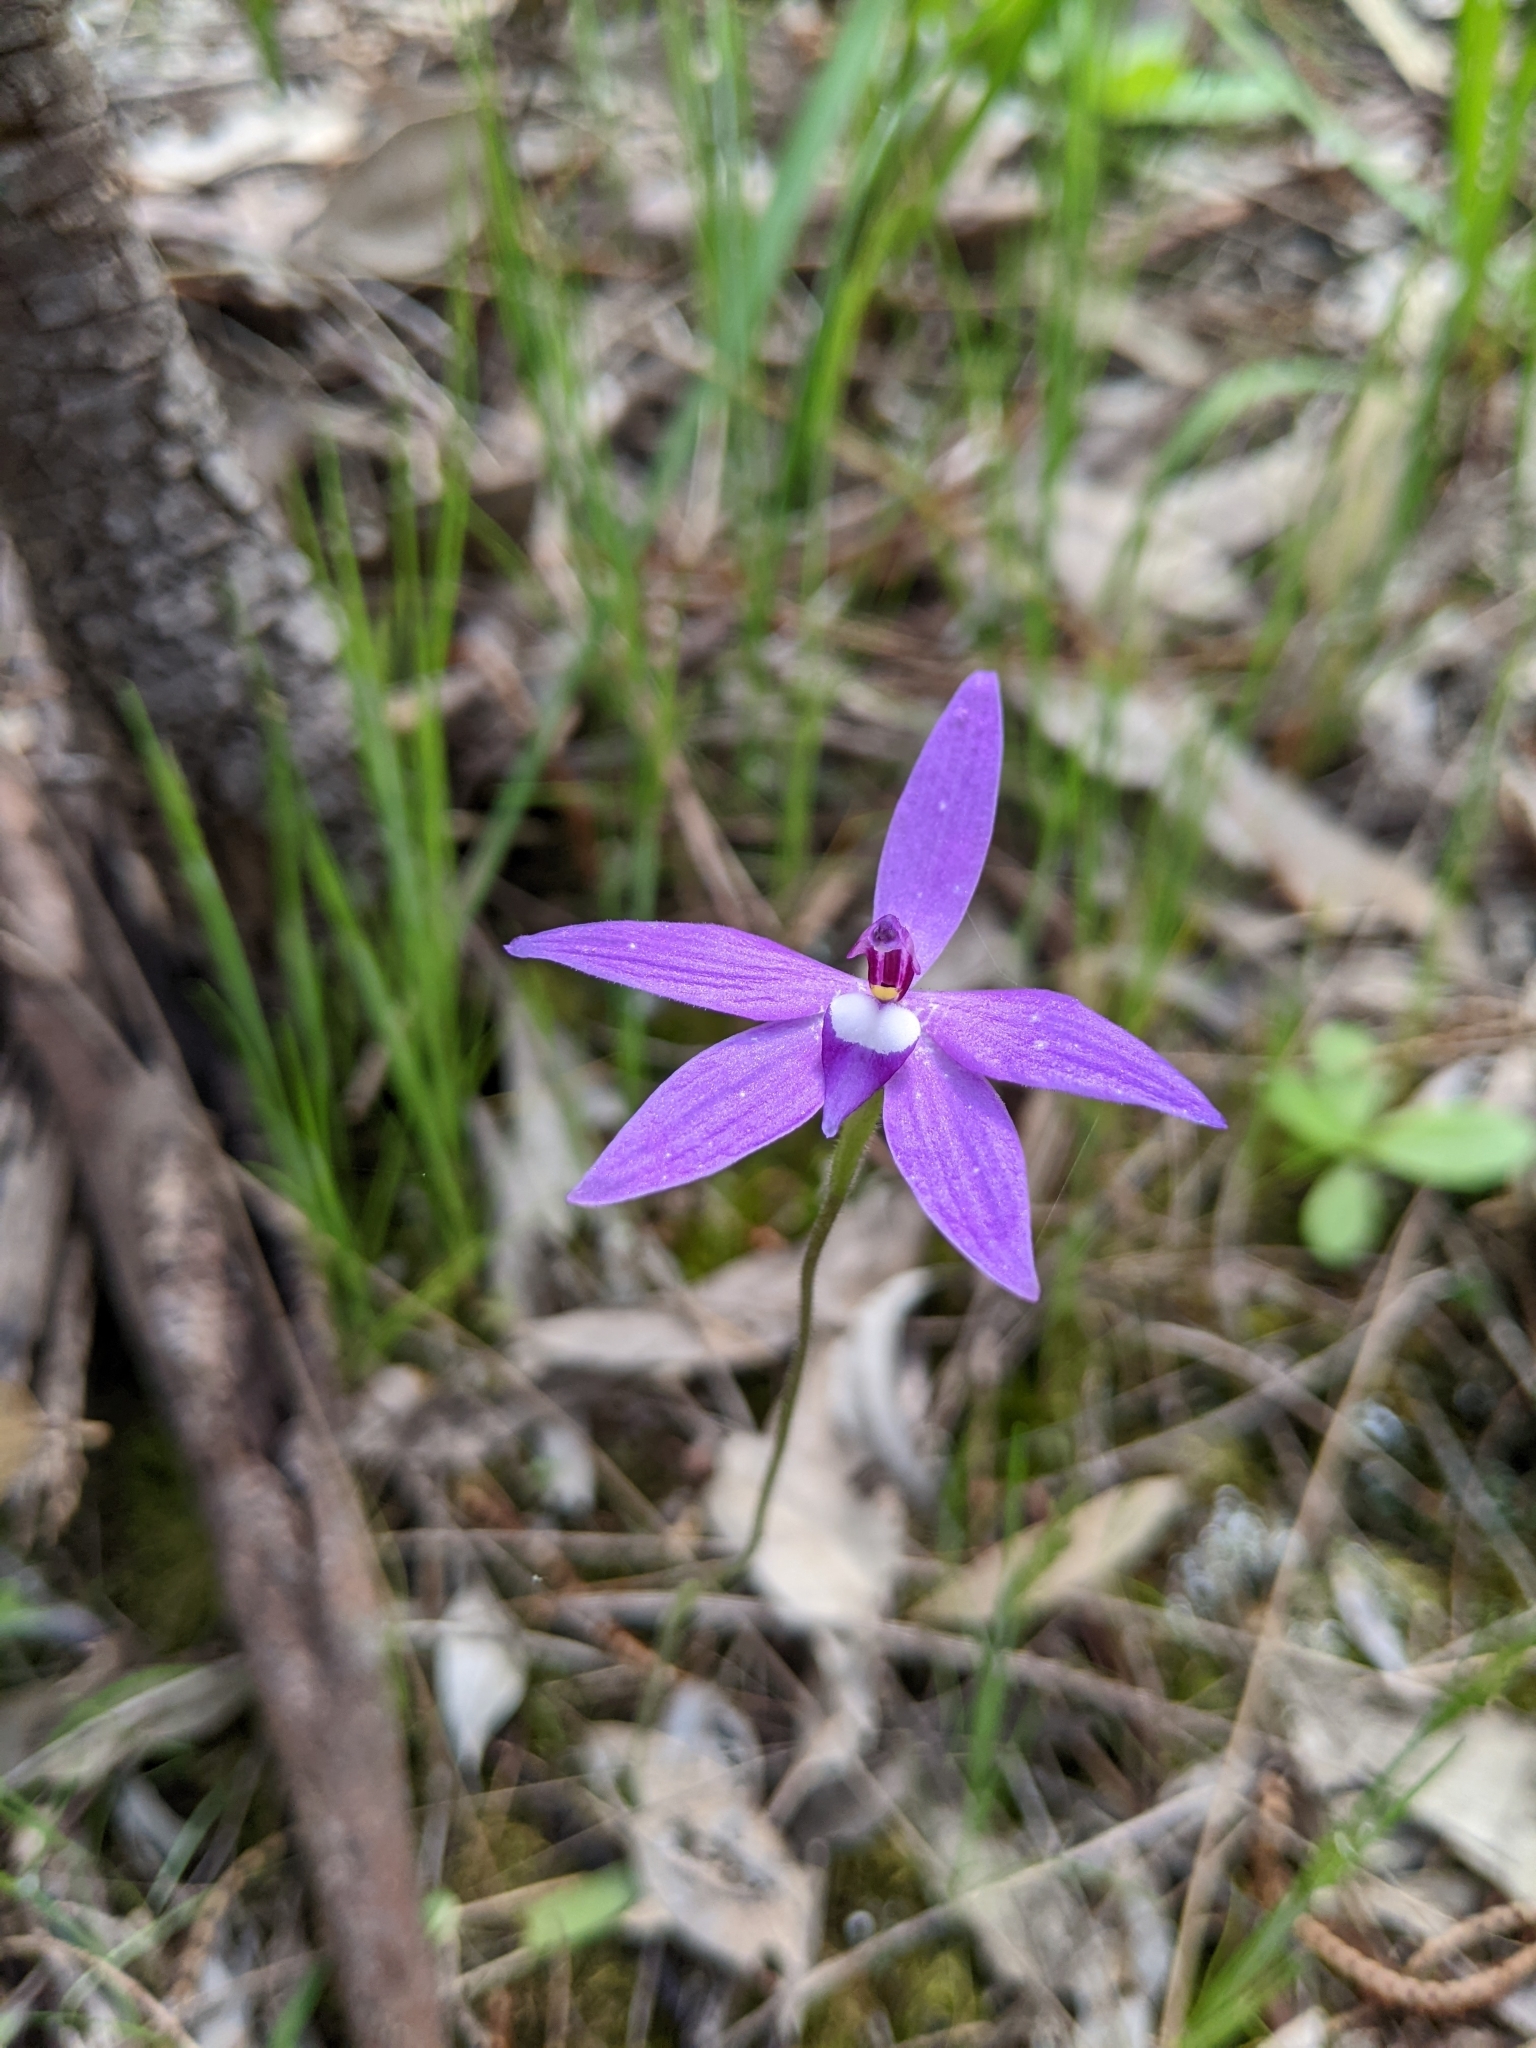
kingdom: Plantae
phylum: Tracheophyta
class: Liliopsida
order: Asparagales
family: Orchidaceae
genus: Caladenia
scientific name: Caladenia major
